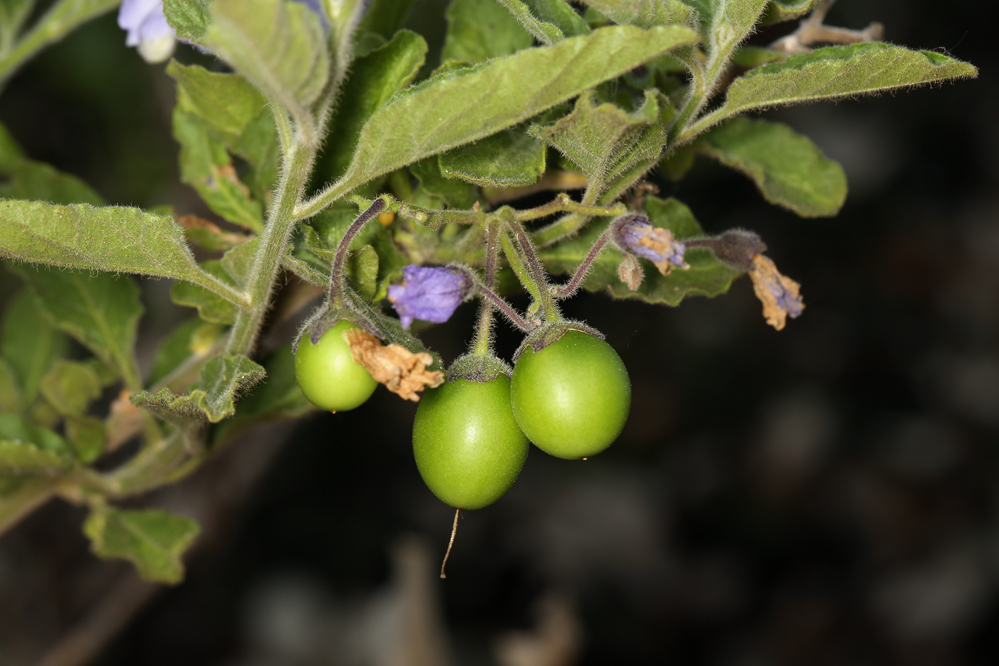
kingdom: Plantae
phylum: Tracheophyta
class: Magnoliopsida
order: Solanales
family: Solanaceae
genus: Solanum
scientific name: Solanum umbelliferum
